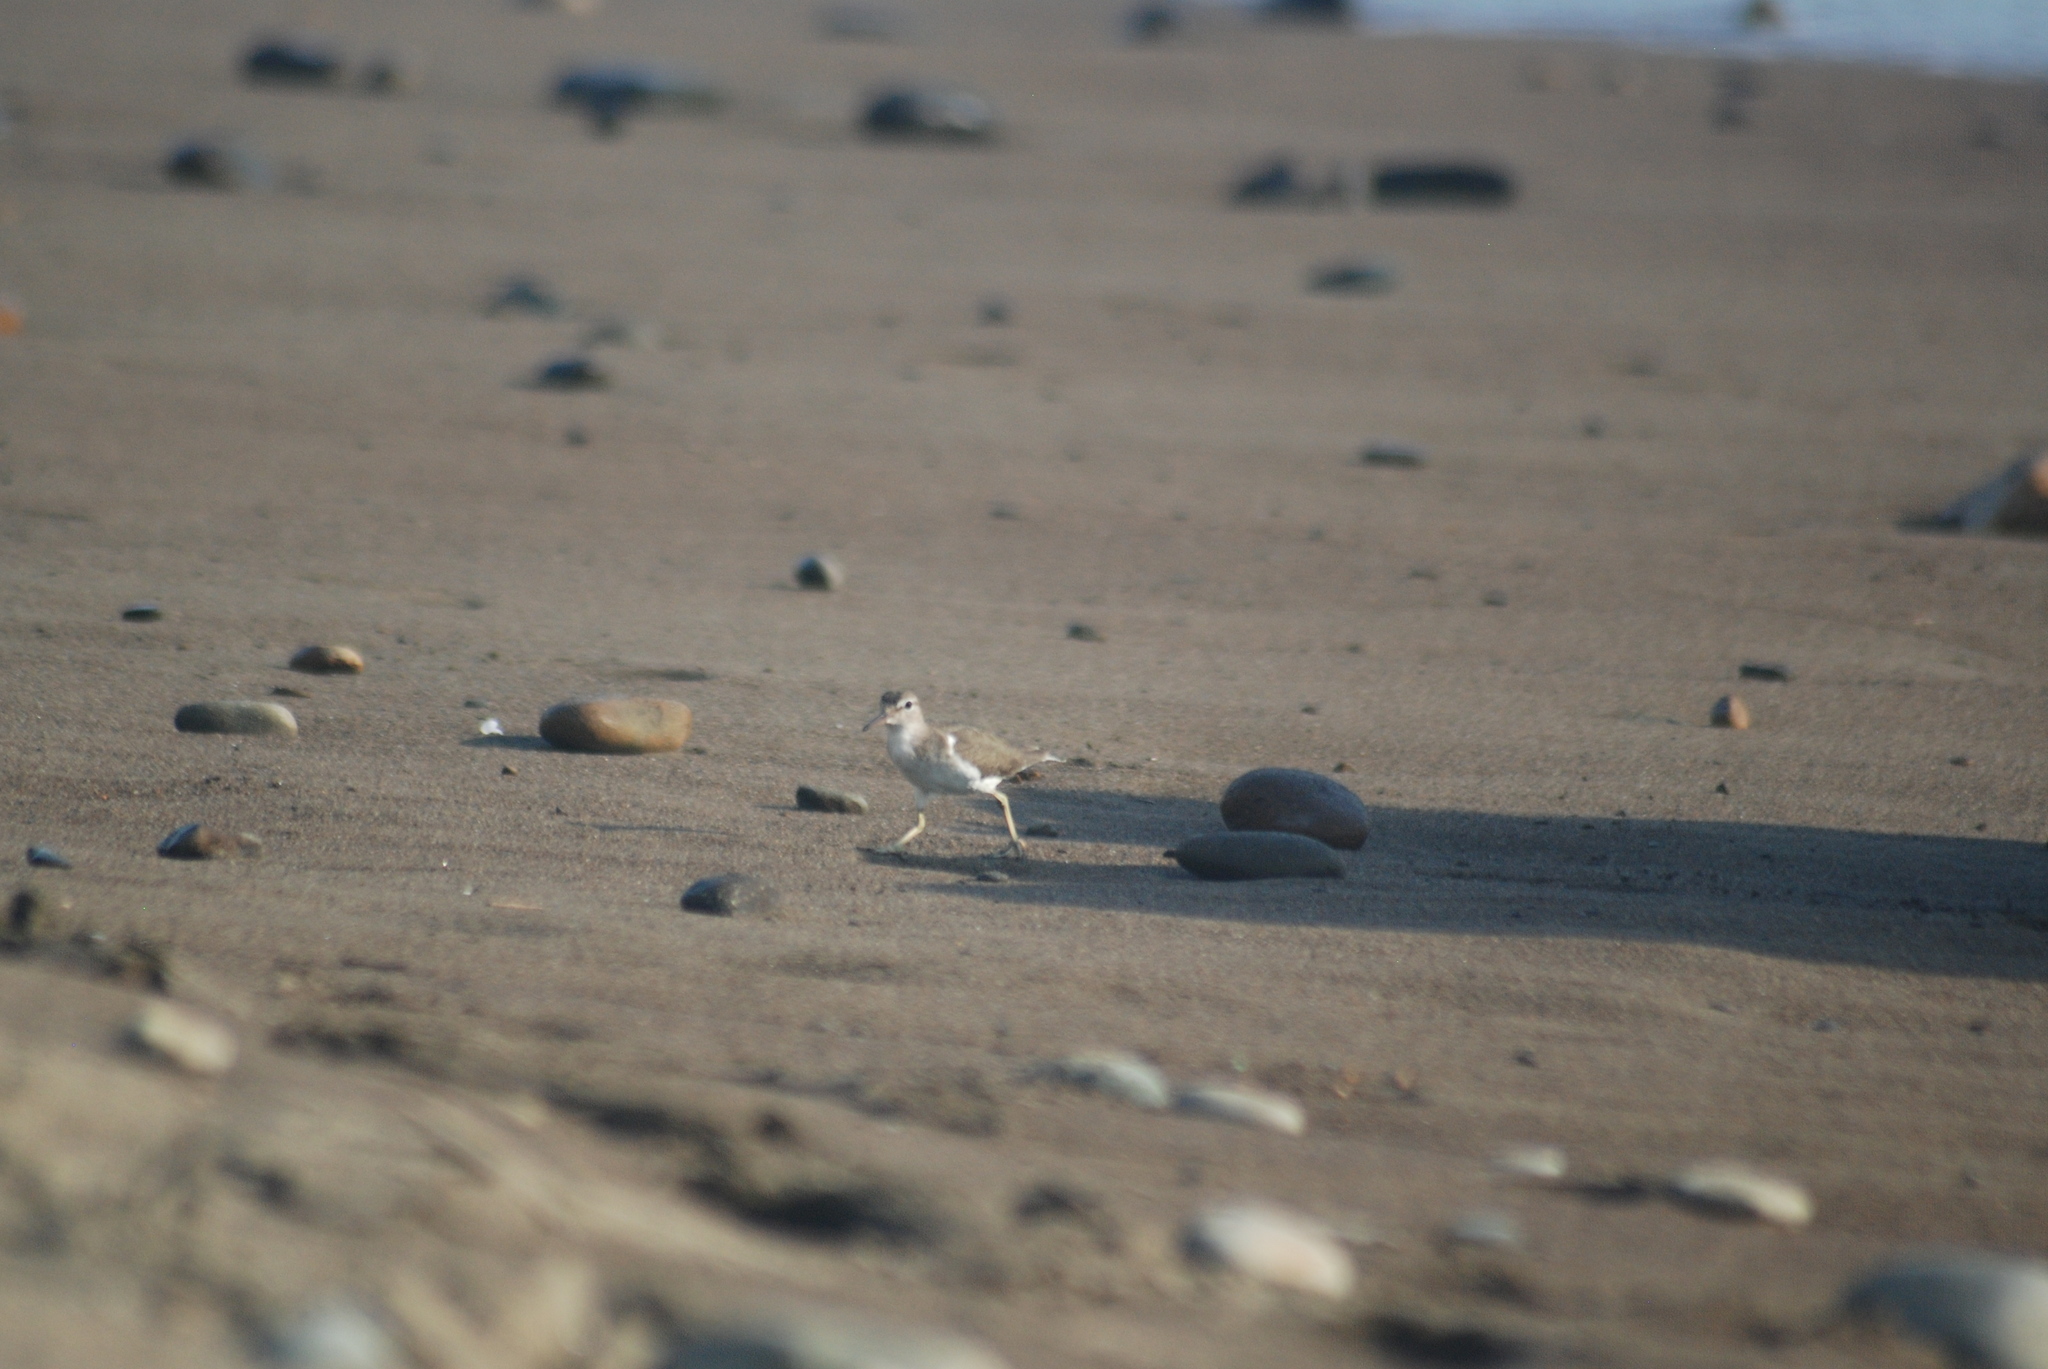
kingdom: Animalia
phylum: Chordata
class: Aves
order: Charadriiformes
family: Scolopacidae
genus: Actitis
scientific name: Actitis macularius
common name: Spotted sandpiper
